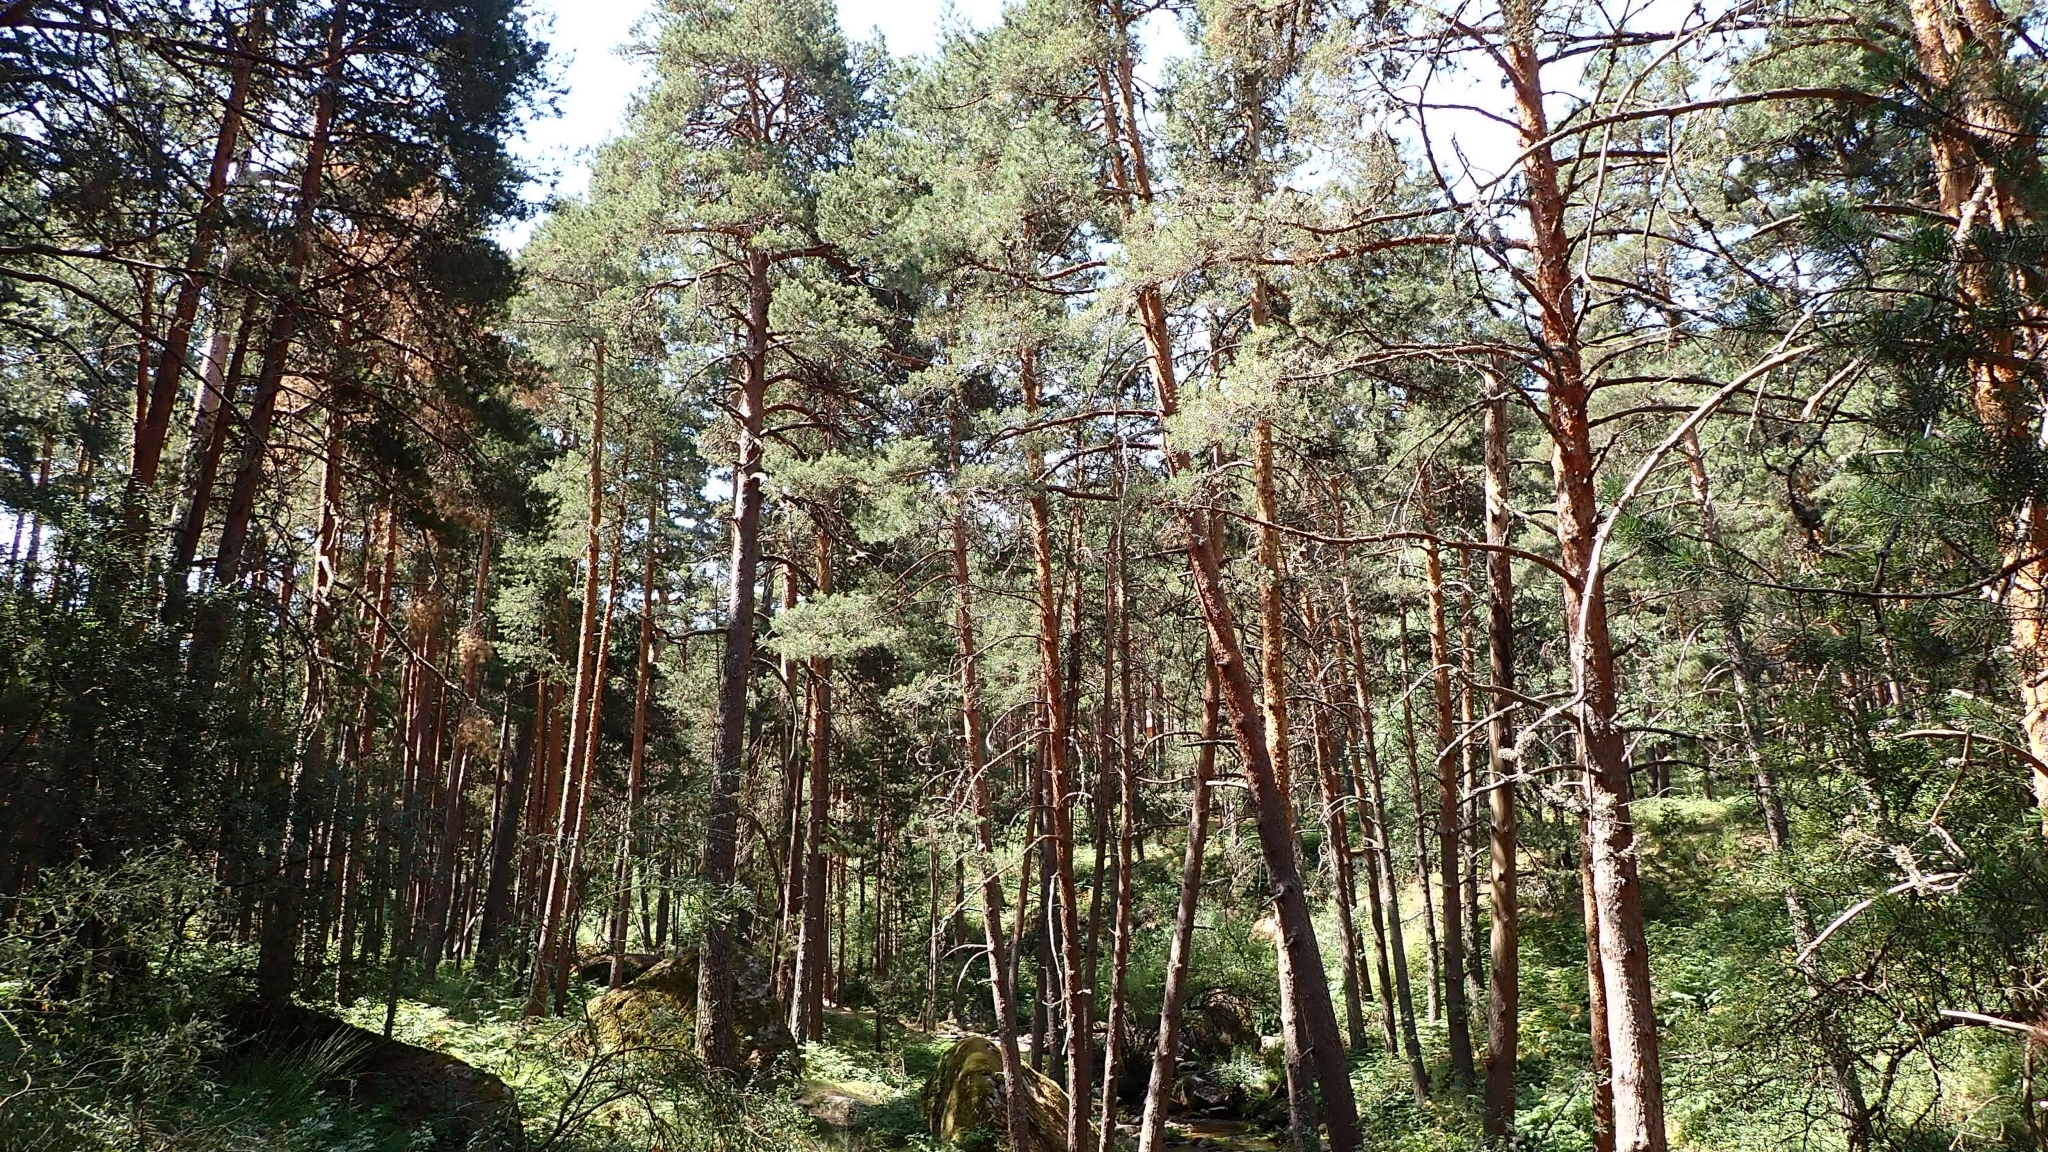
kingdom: Plantae
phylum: Tracheophyta
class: Pinopsida
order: Pinales
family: Pinaceae
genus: Pinus
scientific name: Pinus sylvestris
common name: Scots pine
